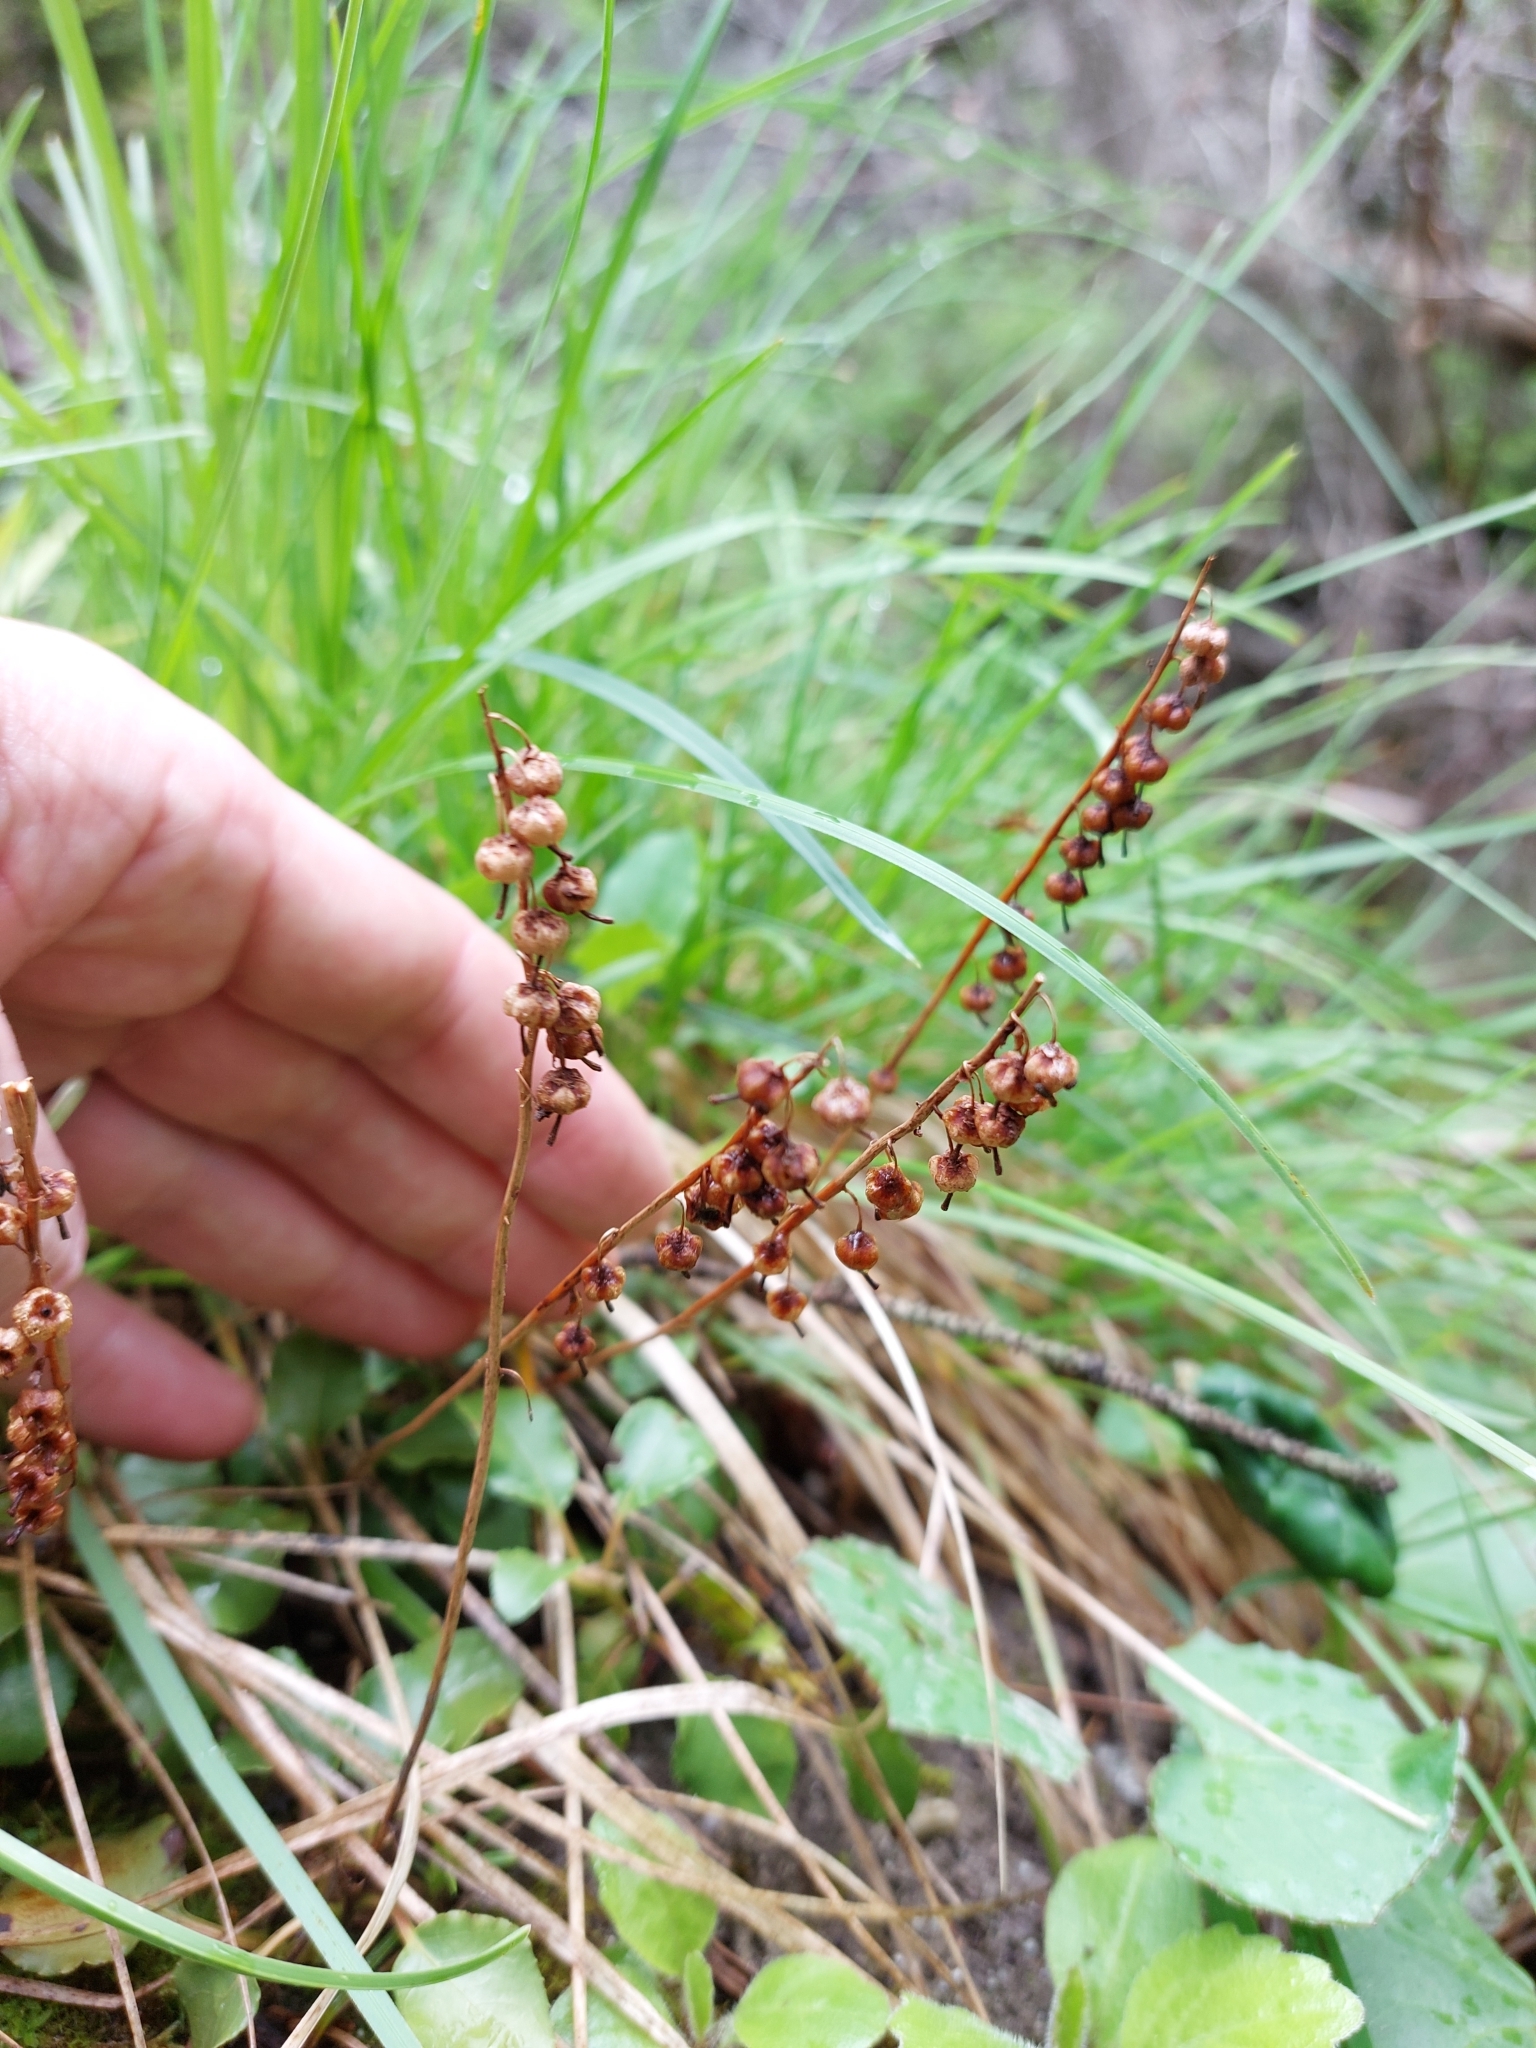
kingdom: Plantae
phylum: Tracheophyta
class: Magnoliopsida
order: Ericales
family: Ericaceae
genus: Orthilia
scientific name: Orthilia secunda
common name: One-sided orthilia
